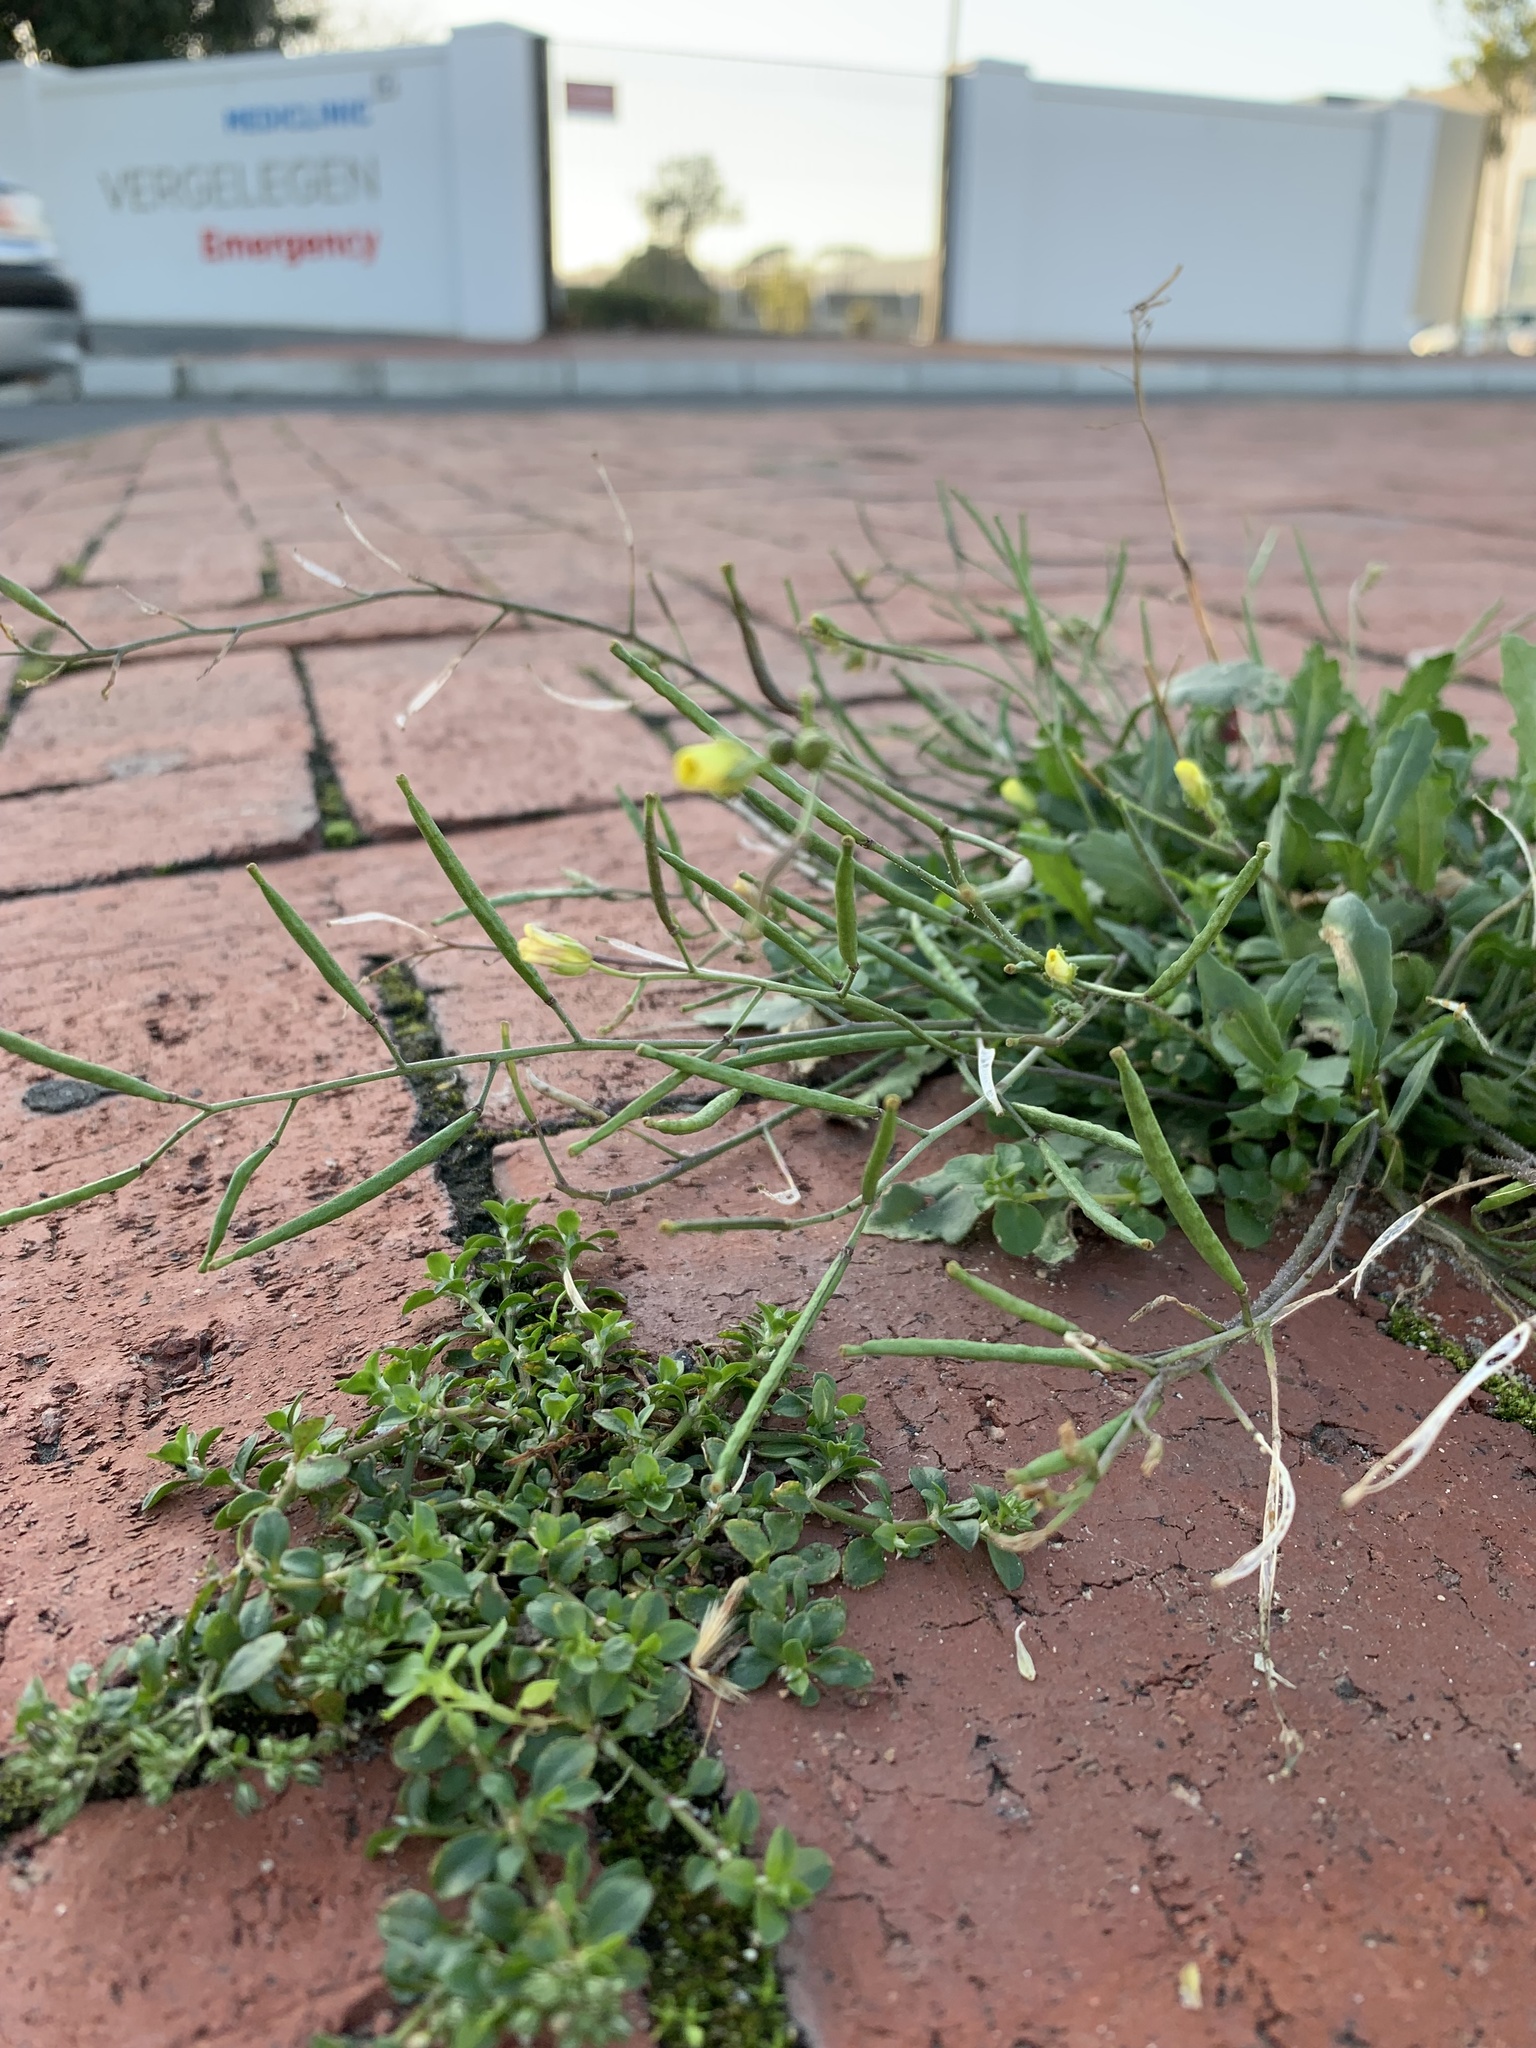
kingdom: Plantae
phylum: Tracheophyta
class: Magnoliopsida
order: Brassicales
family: Brassicaceae
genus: Diplotaxis
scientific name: Diplotaxis muralis
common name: Annual wall-rocket
